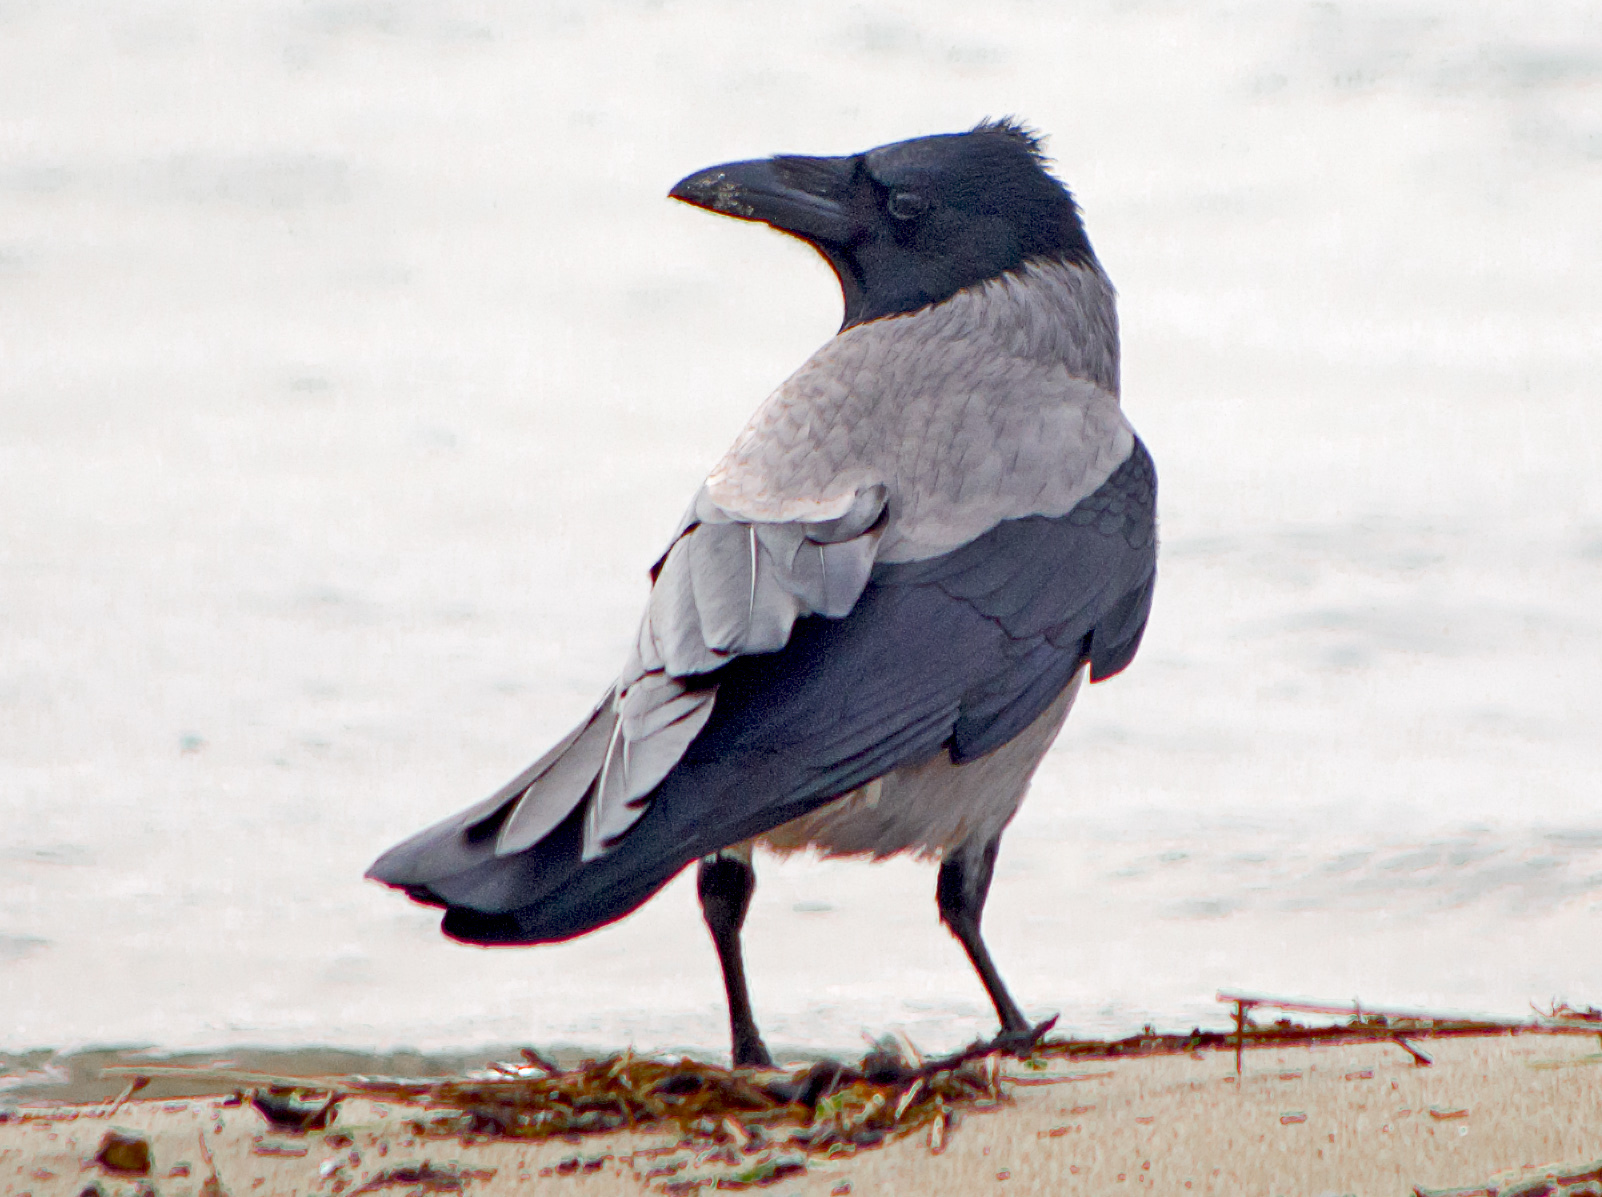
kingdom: Animalia
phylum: Chordata
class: Aves
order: Passeriformes
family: Corvidae
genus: Corvus
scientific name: Corvus cornix
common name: Hooded crow
